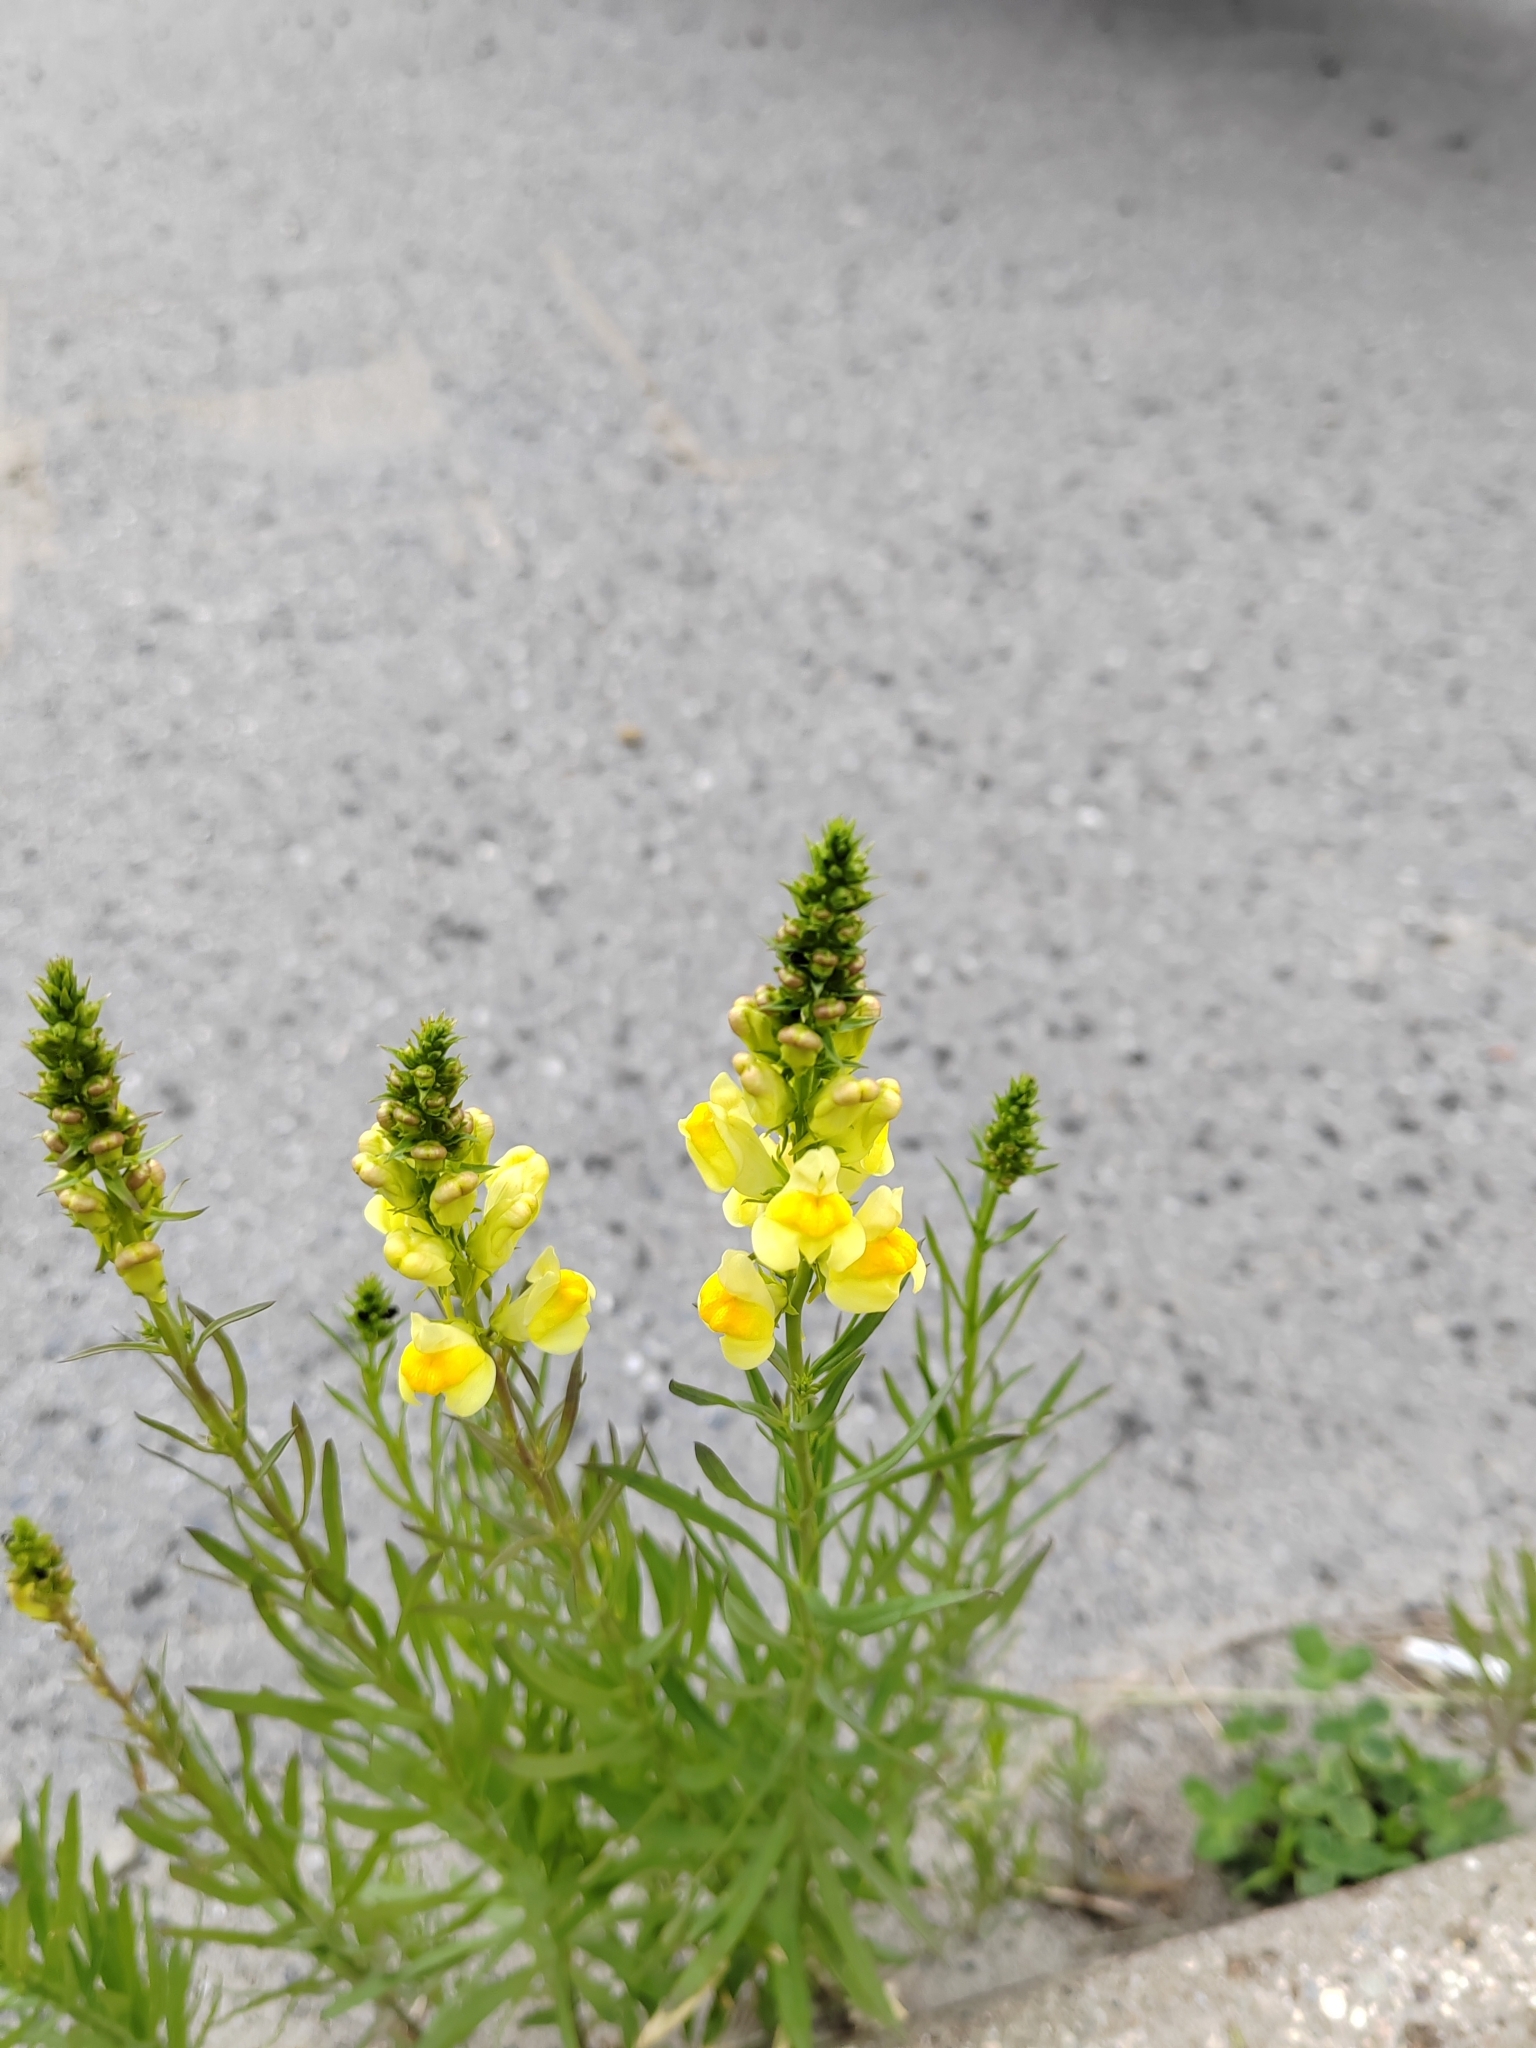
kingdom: Plantae
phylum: Tracheophyta
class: Magnoliopsida
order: Lamiales
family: Plantaginaceae
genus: Linaria
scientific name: Linaria vulgaris
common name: Butter and eggs
